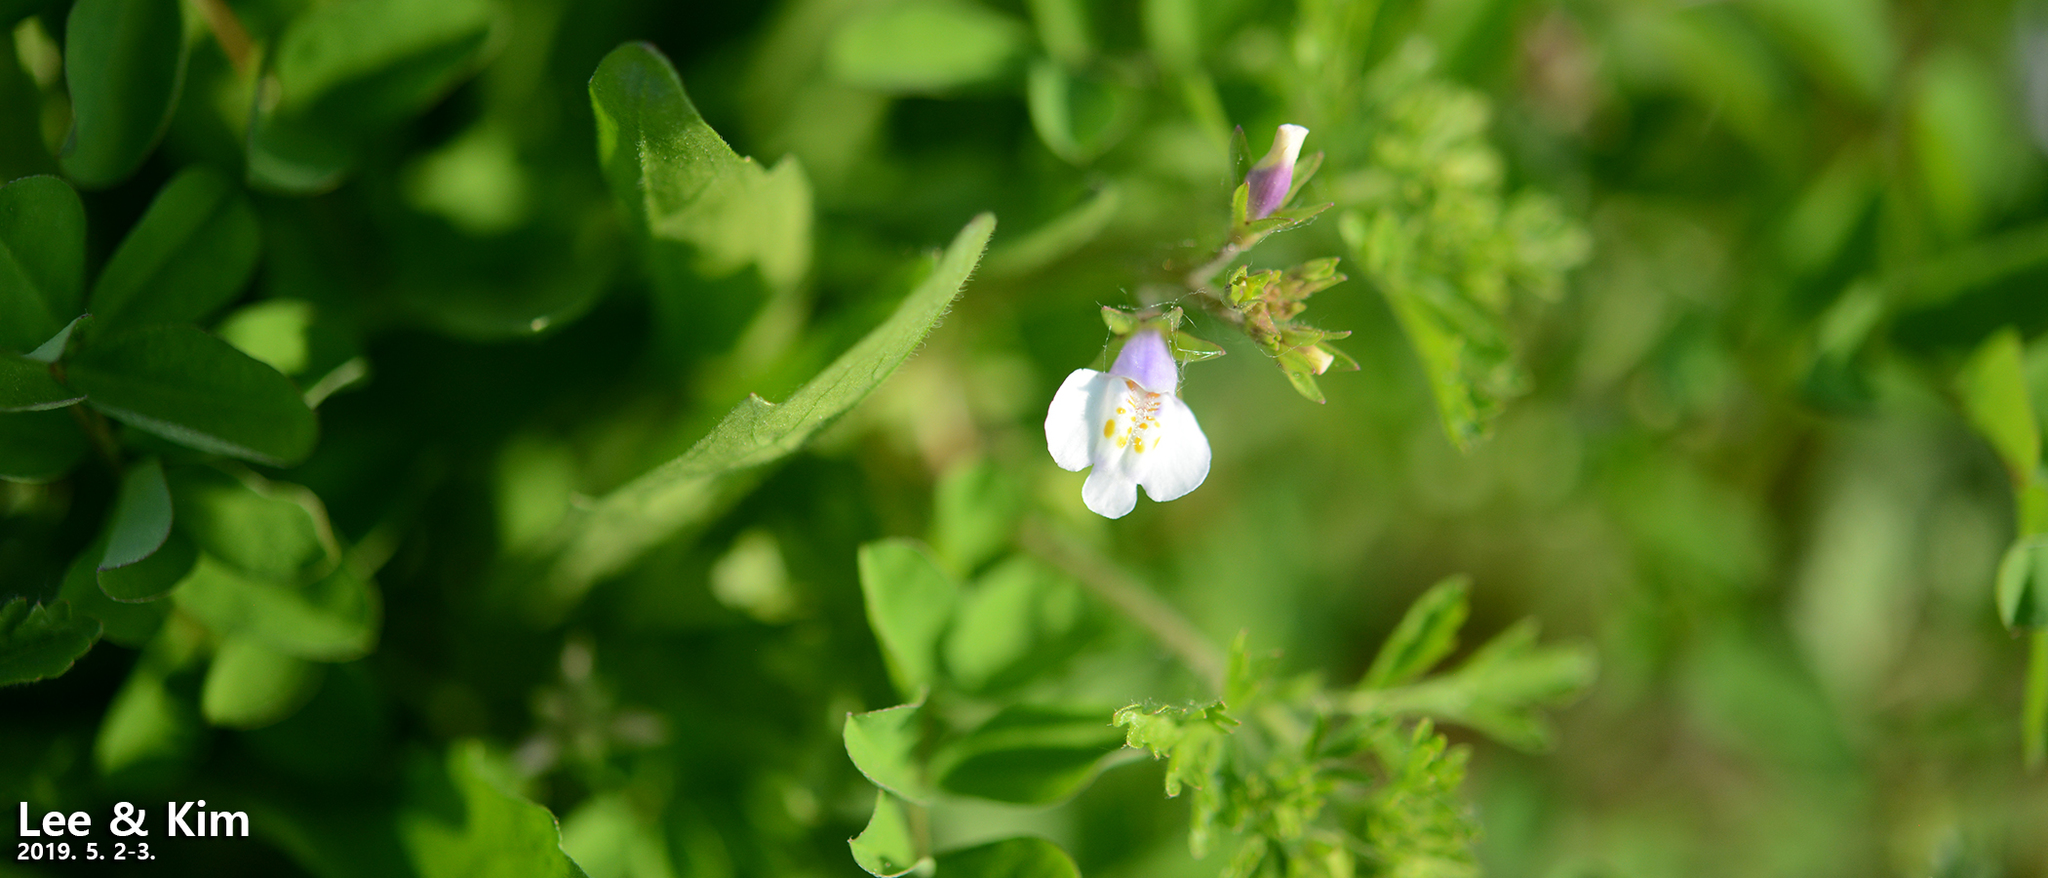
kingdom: Plantae
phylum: Tracheophyta
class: Magnoliopsida
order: Lamiales
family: Mazaceae
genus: Mazus
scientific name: Mazus pumilus
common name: Japanese mazus
